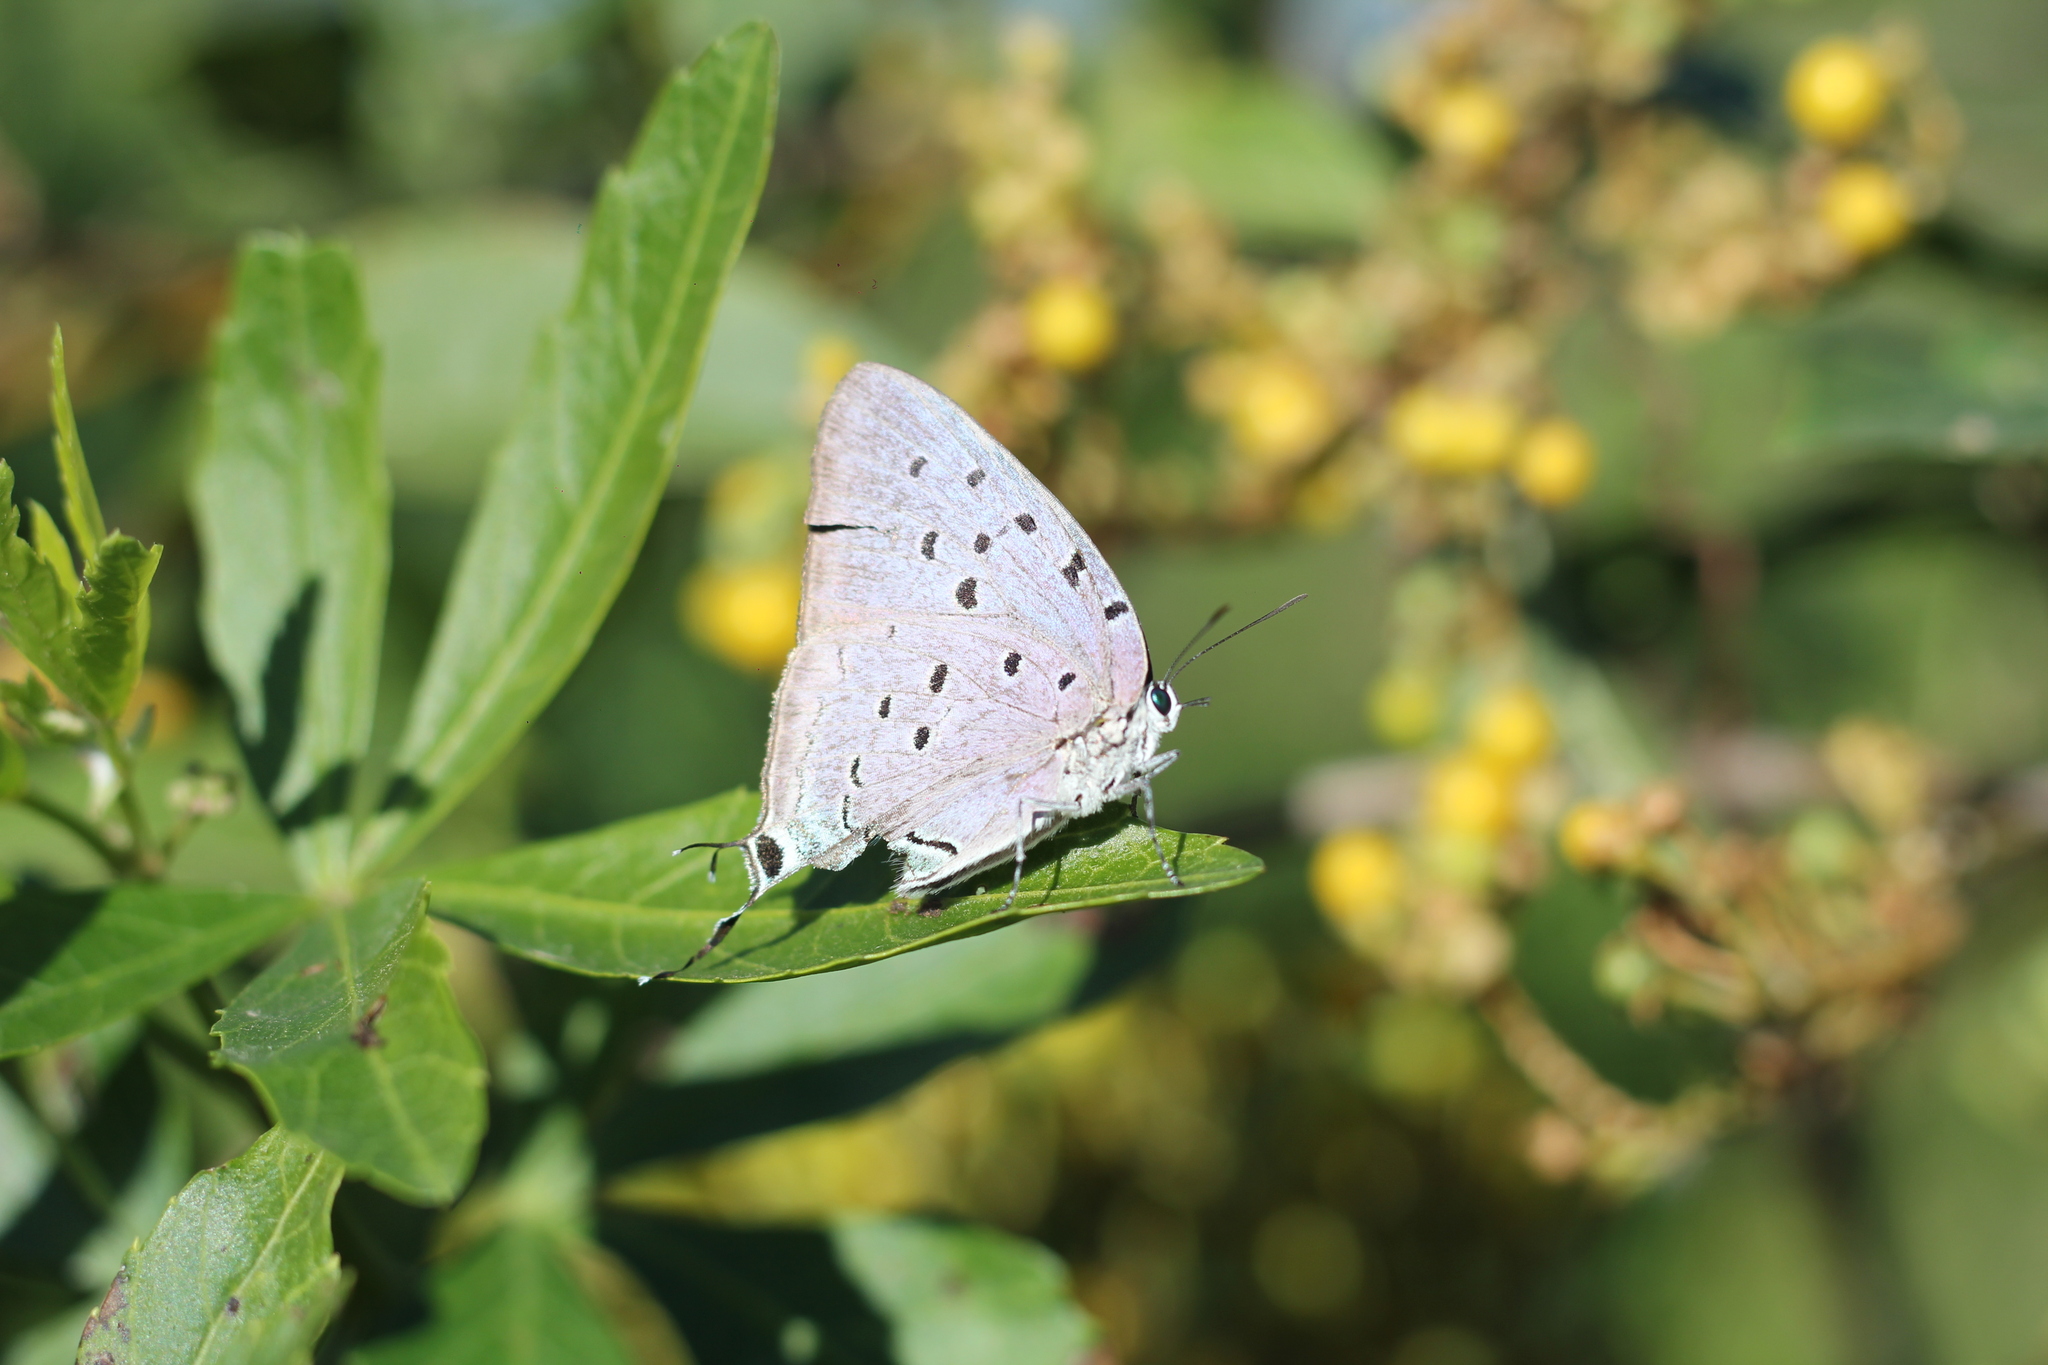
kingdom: Animalia
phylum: Arthropoda
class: Insecta
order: Lepidoptera
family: Lycaenidae
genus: Pseudolycaena
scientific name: Pseudolycaena marsyas
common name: Marsyas hairstreak
